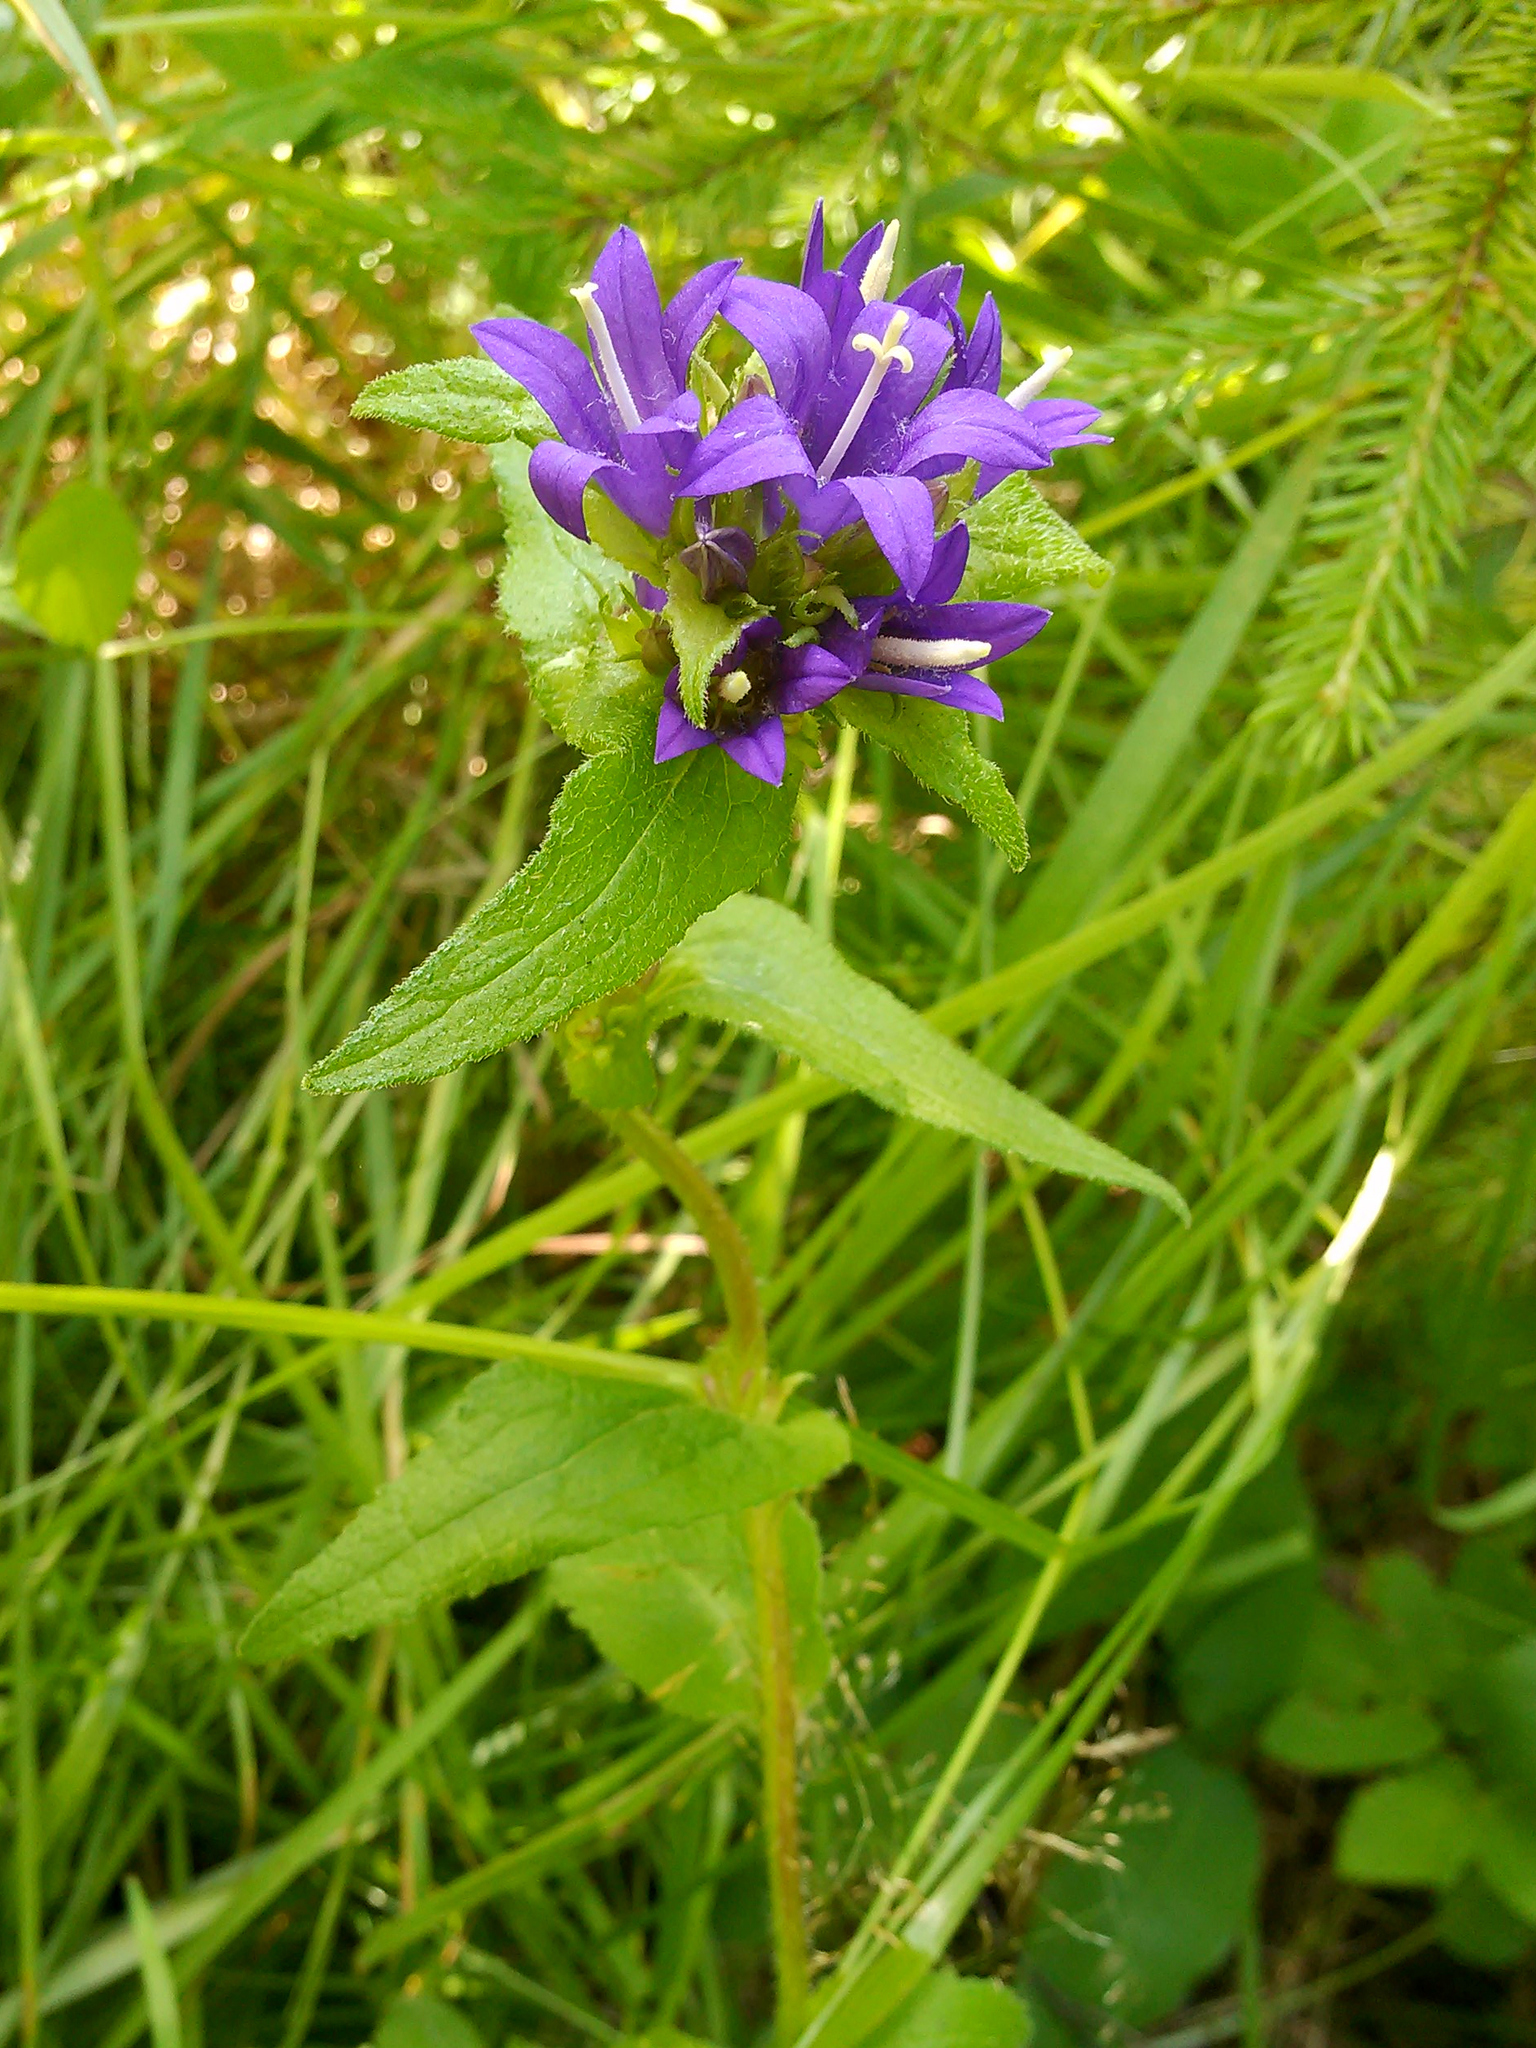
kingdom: Plantae
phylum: Tracheophyta
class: Magnoliopsida
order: Asterales
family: Campanulaceae
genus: Campanula
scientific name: Campanula trachelium
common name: Nettle-leaved bellflower
